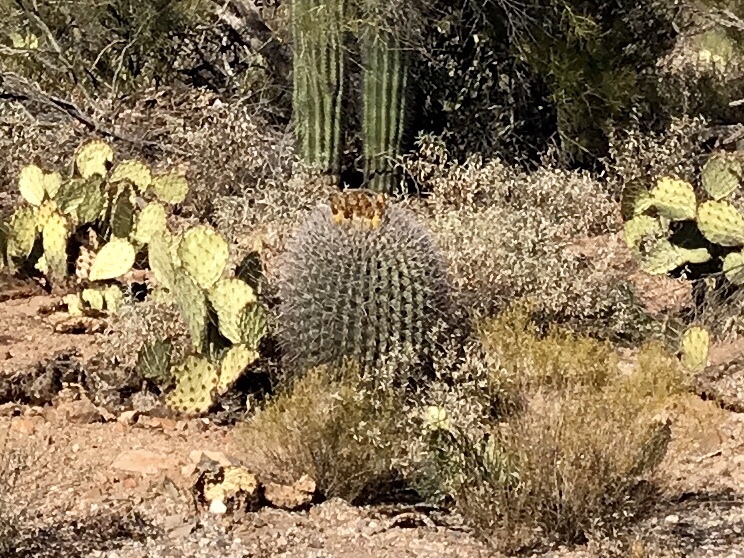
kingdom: Plantae
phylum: Tracheophyta
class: Magnoliopsida
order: Caryophyllales
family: Cactaceae
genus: Ferocactus
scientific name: Ferocactus wislizeni
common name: Candy barrel cactus
